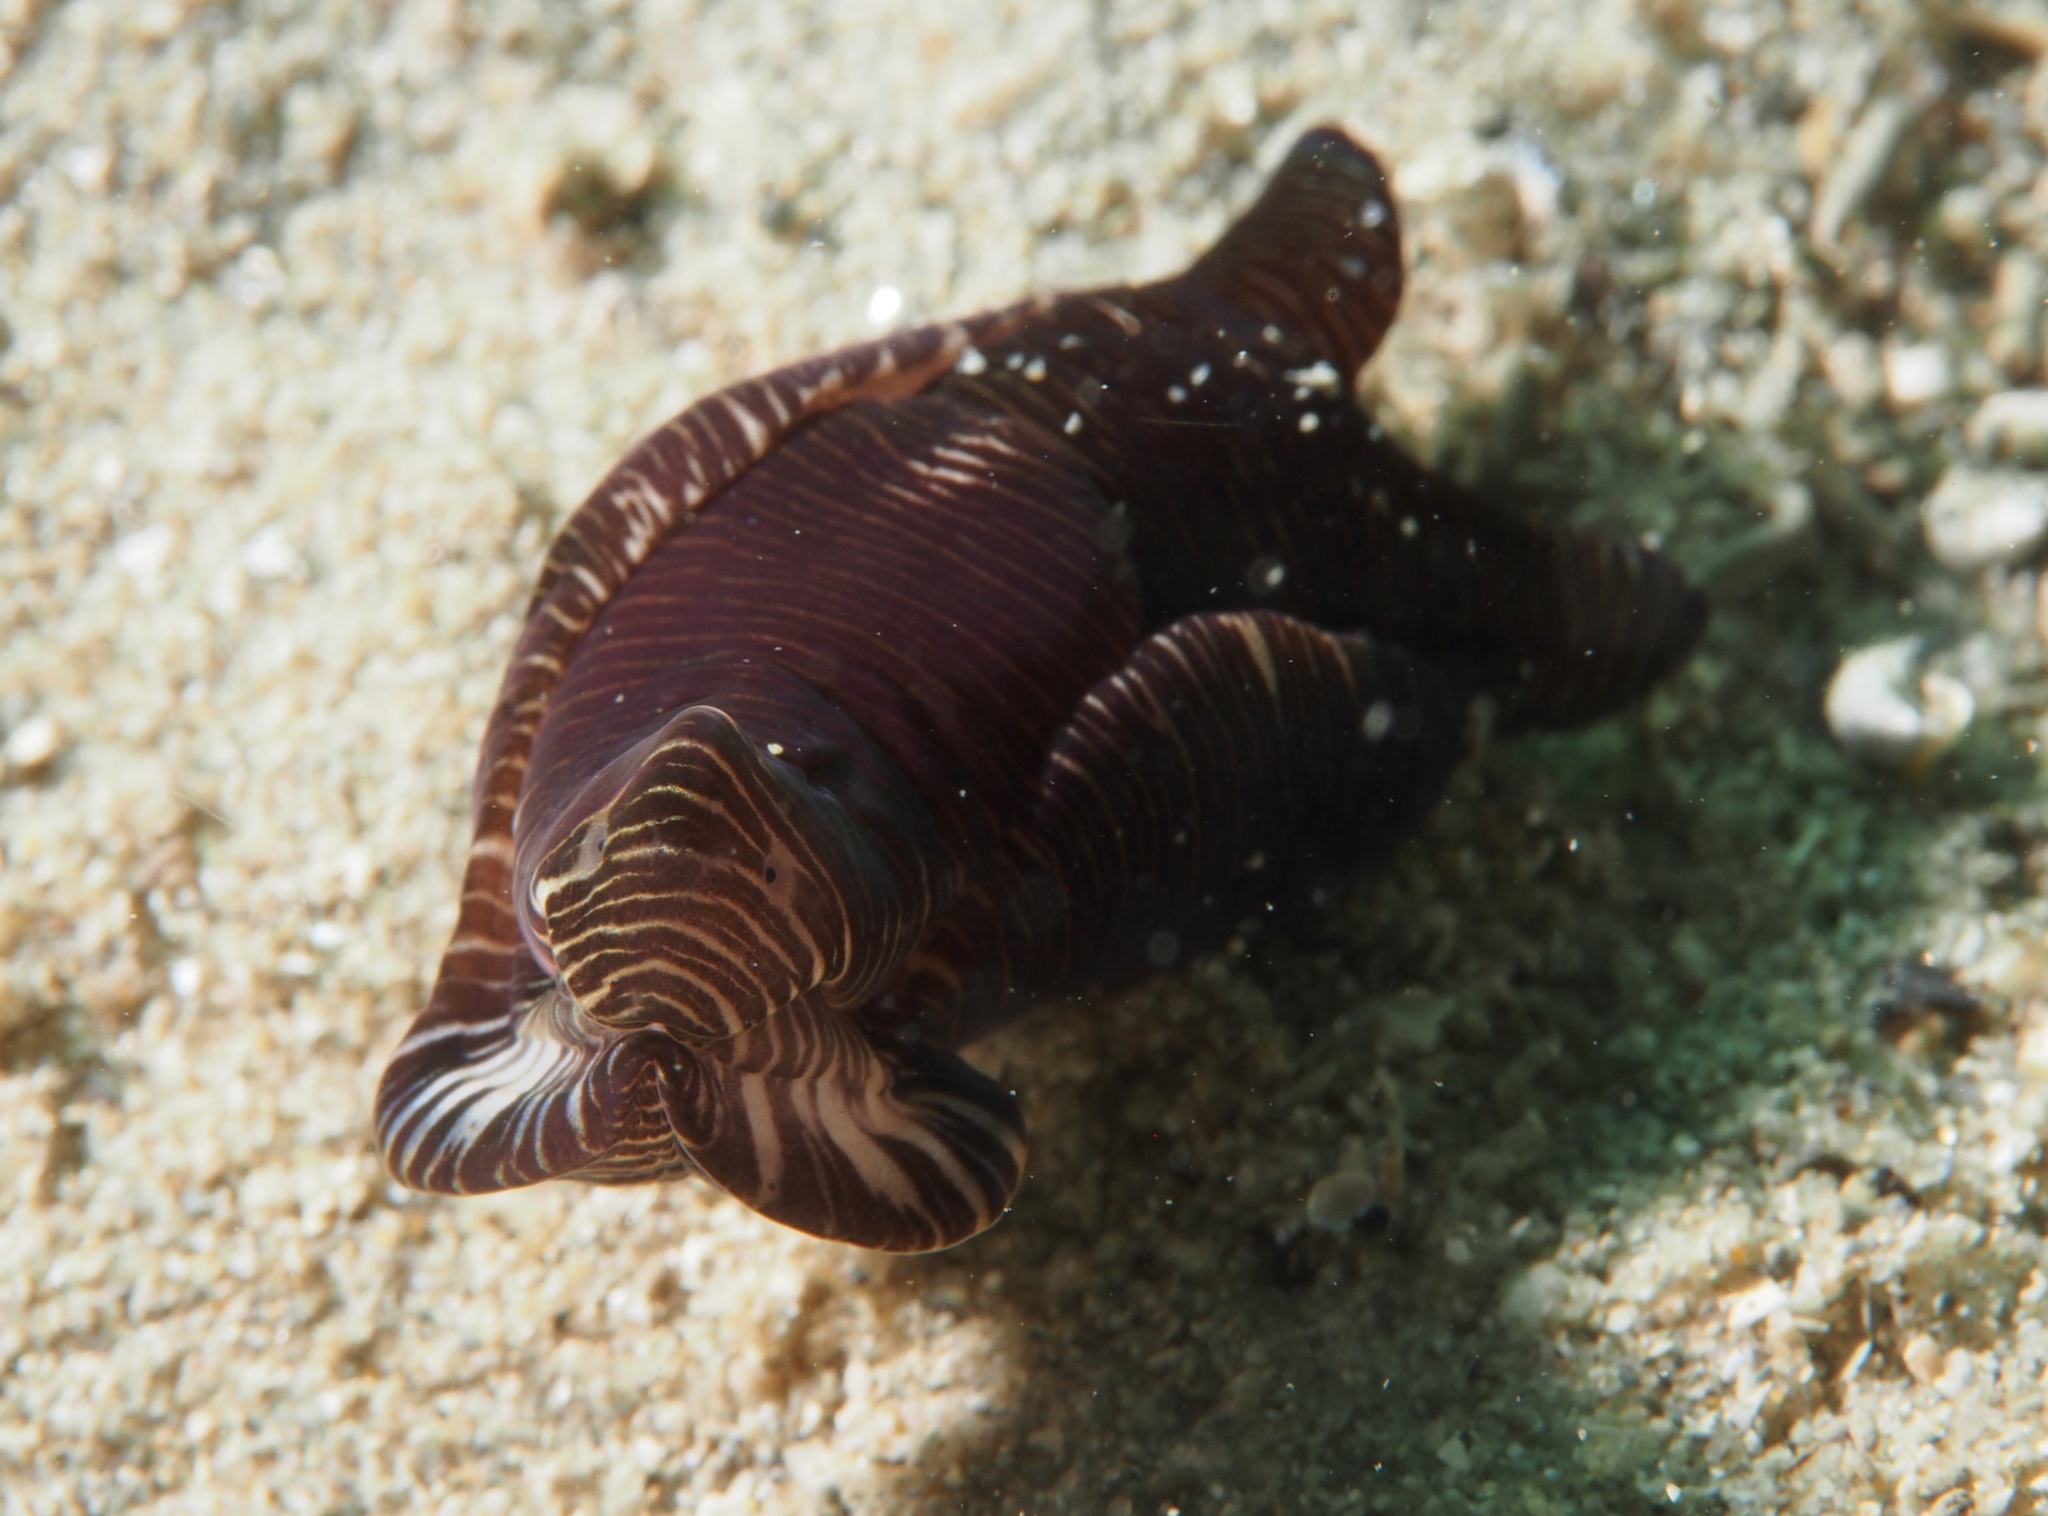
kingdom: Animalia
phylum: Mollusca
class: Gastropoda
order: Cephalaspidea
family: Aglajidae
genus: Tubulophilinopsis
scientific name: Tubulophilinopsis lineolata
